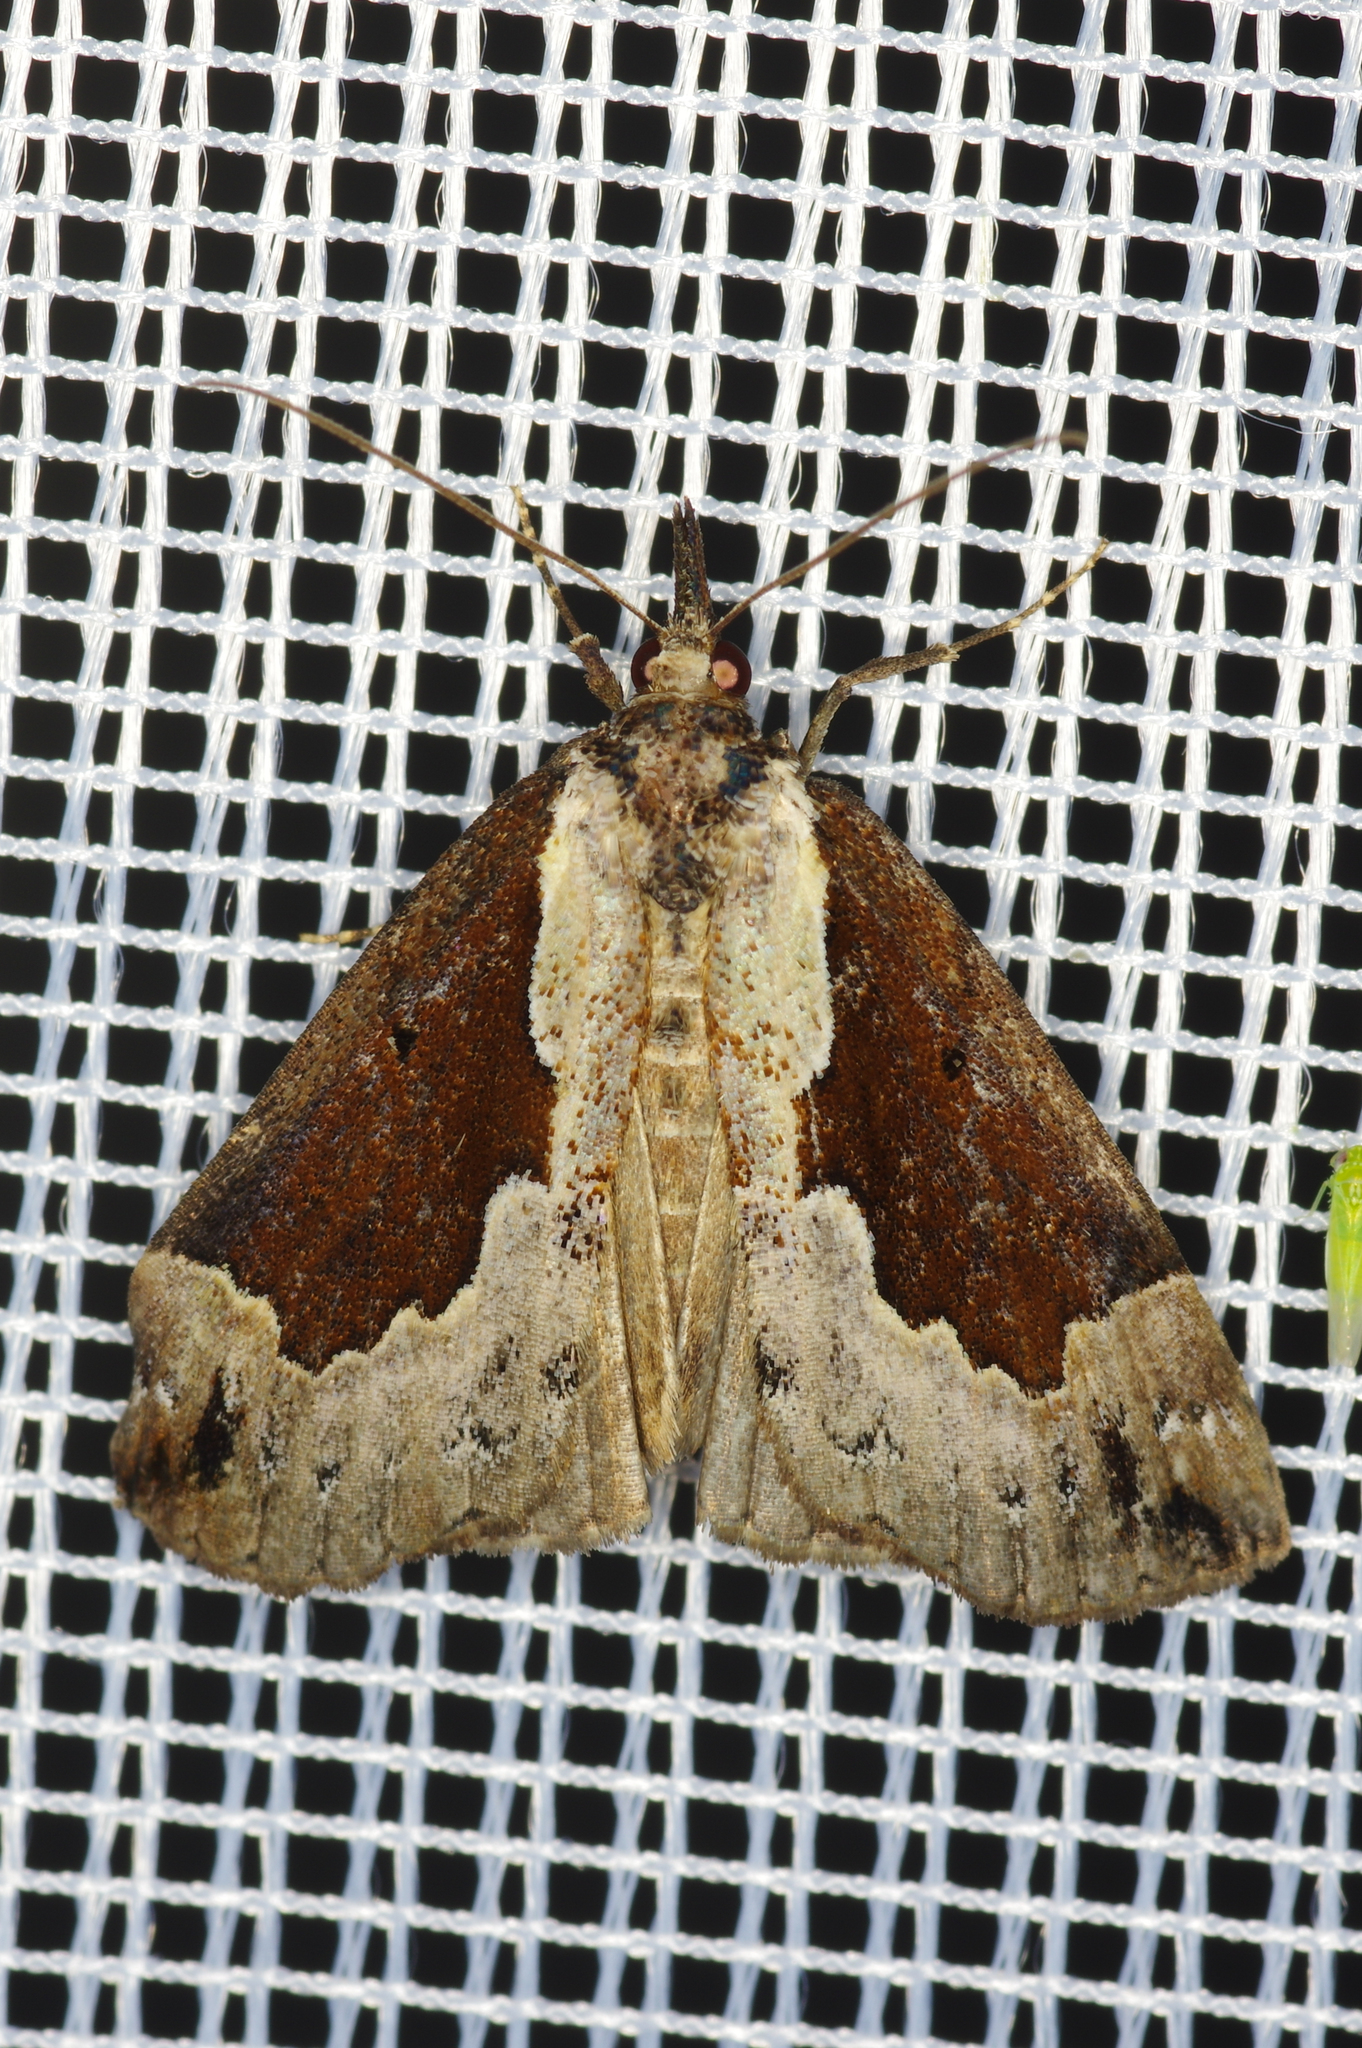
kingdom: Animalia
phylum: Arthropoda
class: Insecta
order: Lepidoptera
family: Erebidae
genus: Hypena
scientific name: Hypena baltimoralis
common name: Baltimore snout
